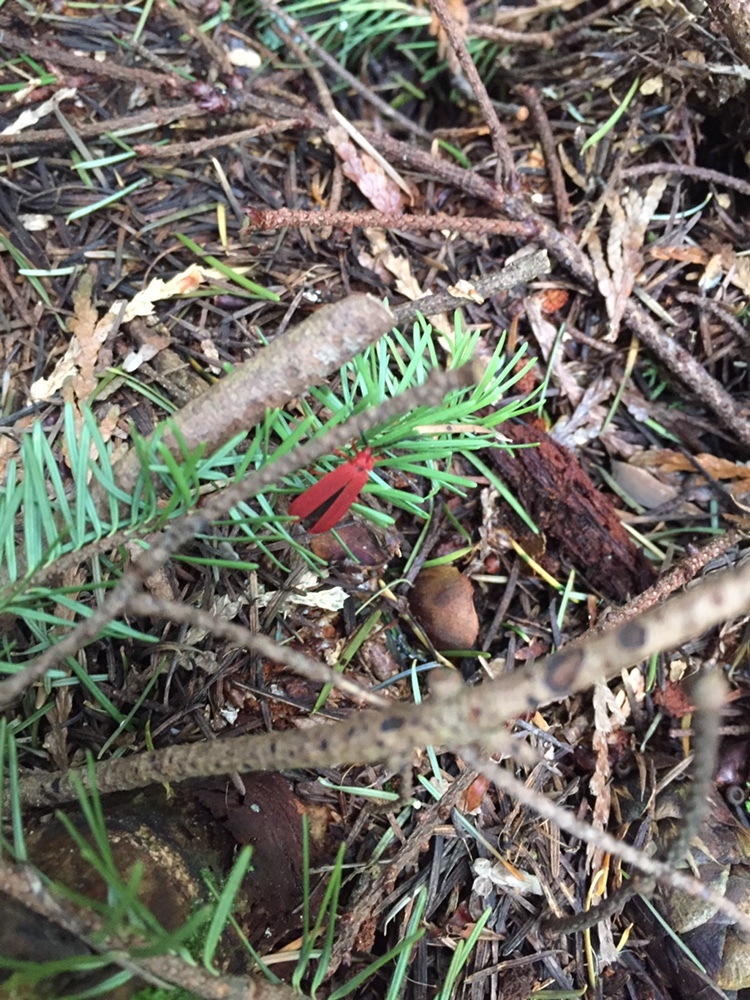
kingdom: Animalia
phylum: Arthropoda
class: Insecta
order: Coleoptera
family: Lycidae
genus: Punicealis
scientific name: Punicealis hamata
